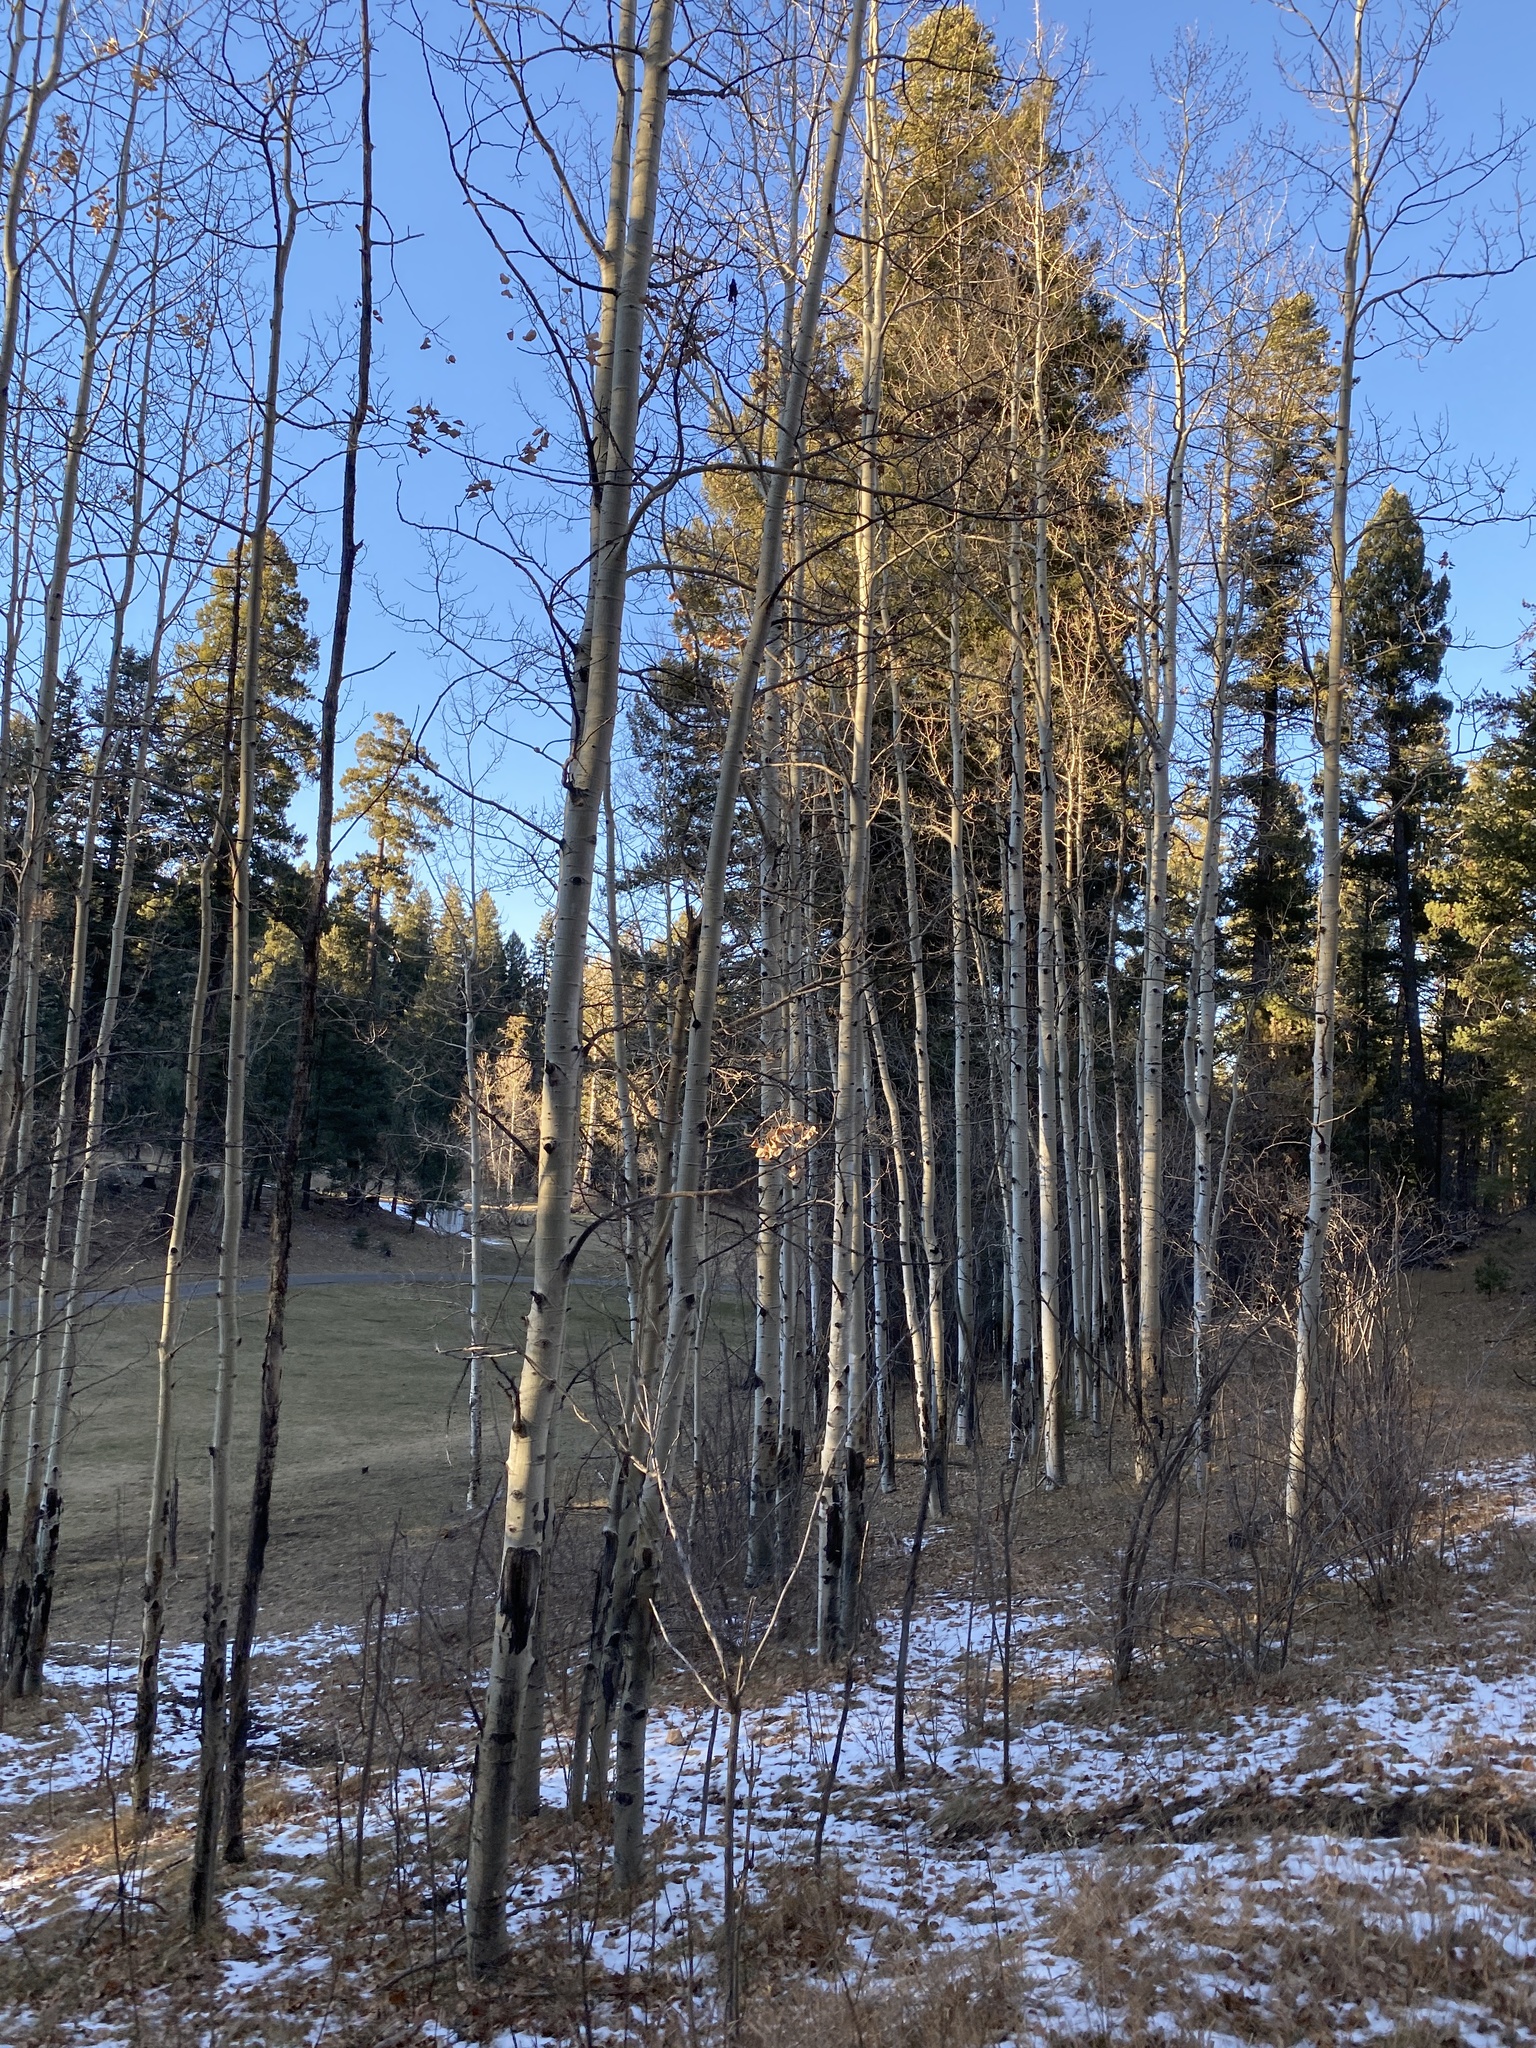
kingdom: Plantae
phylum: Tracheophyta
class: Magnoliopsida
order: Malpighiales
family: Salicaceae
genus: Populus
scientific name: Populus tremuloides
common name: Quaking aspen
